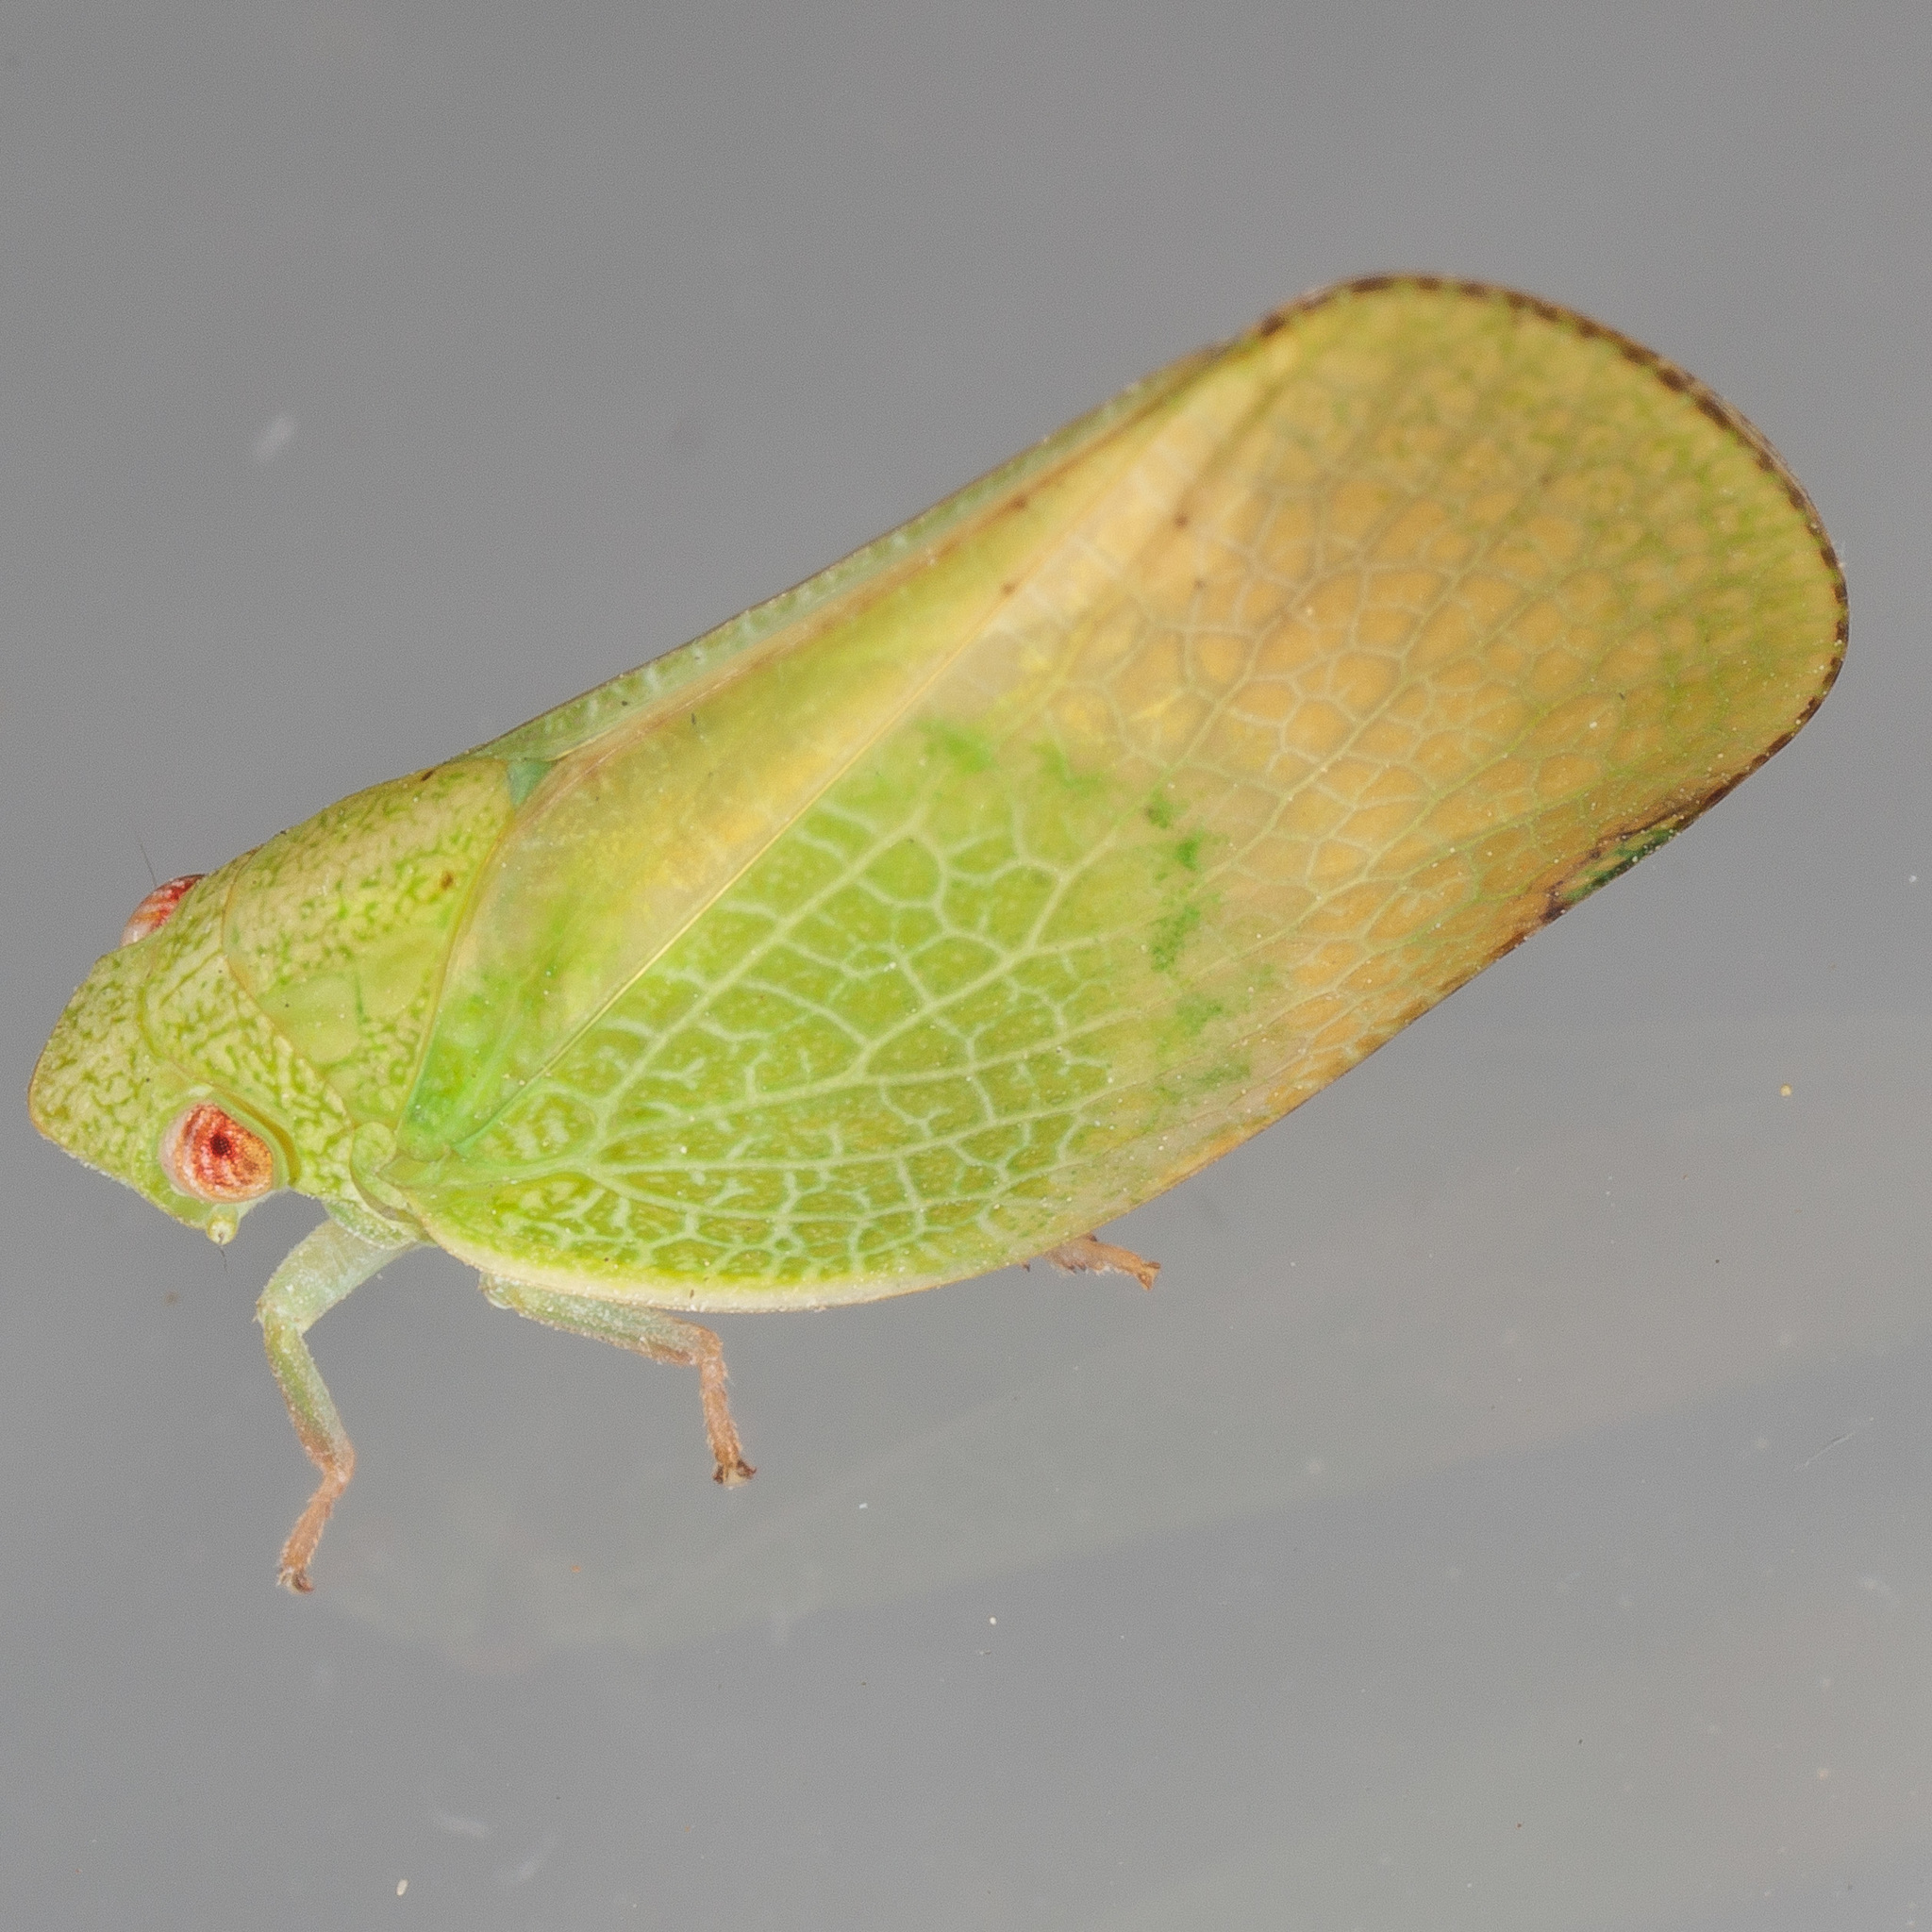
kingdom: Animalia
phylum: Arthropoda
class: Insecta
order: Hemiptera
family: Acanaloniidae
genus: Acanalonia
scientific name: Acanalonia conica
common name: Green cone-headed planthopper
